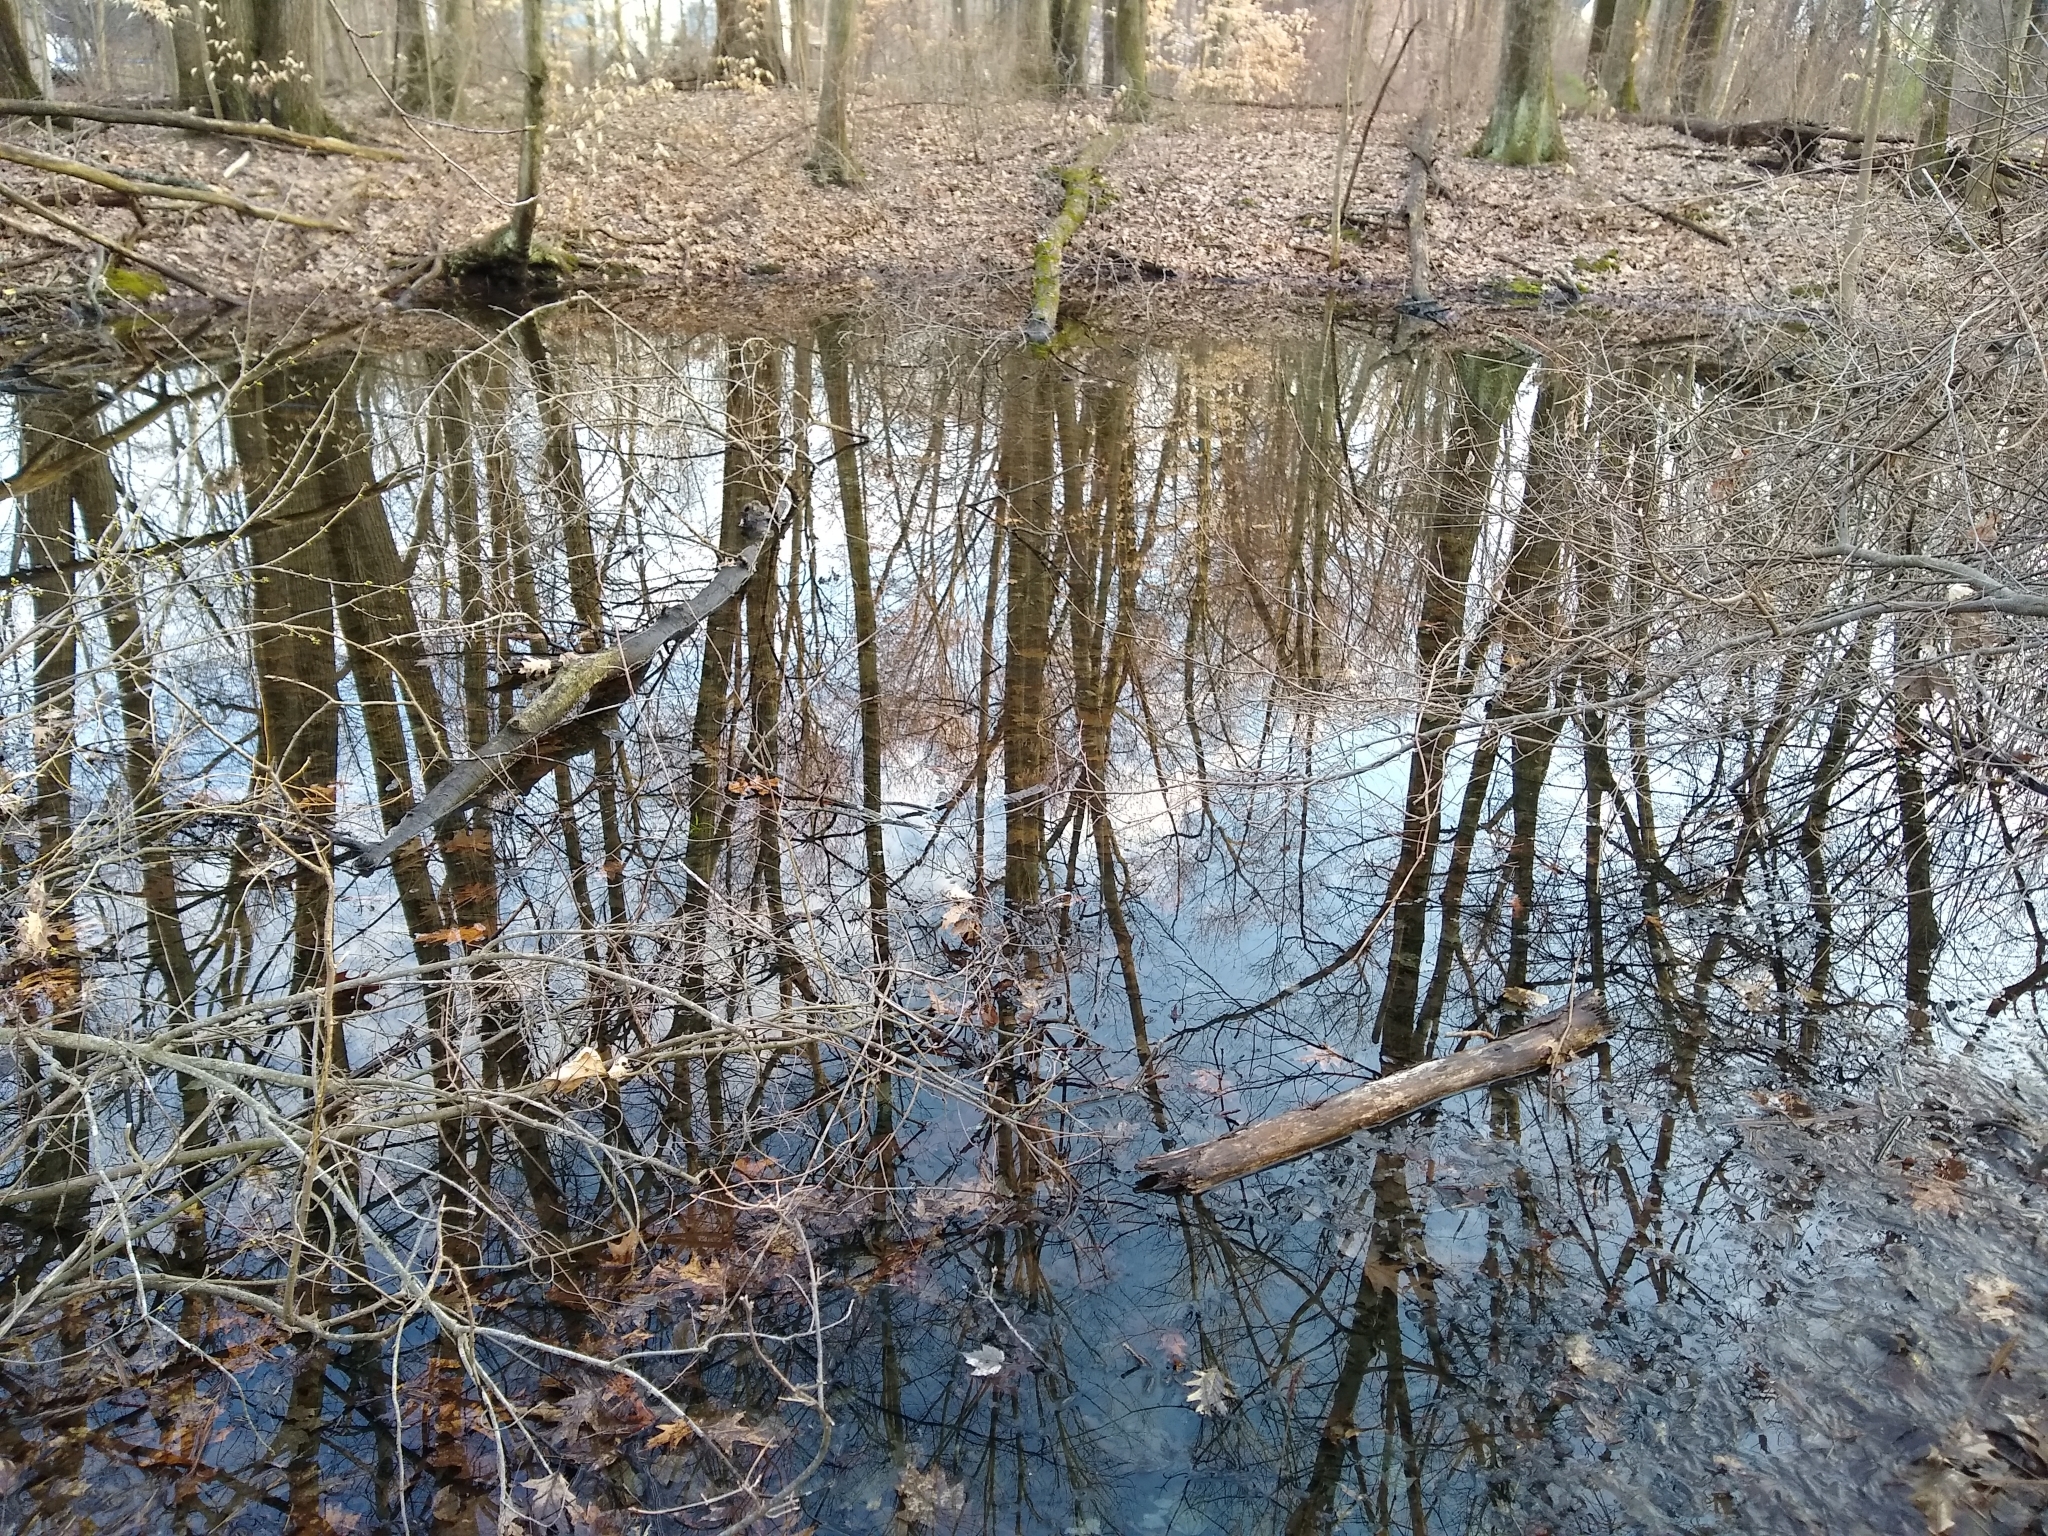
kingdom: Animalia
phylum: Chordata
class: Amphibia
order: Anura
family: Hylidae
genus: Pseudacris
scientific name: Pseudacris crucifer
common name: Spring peeper
